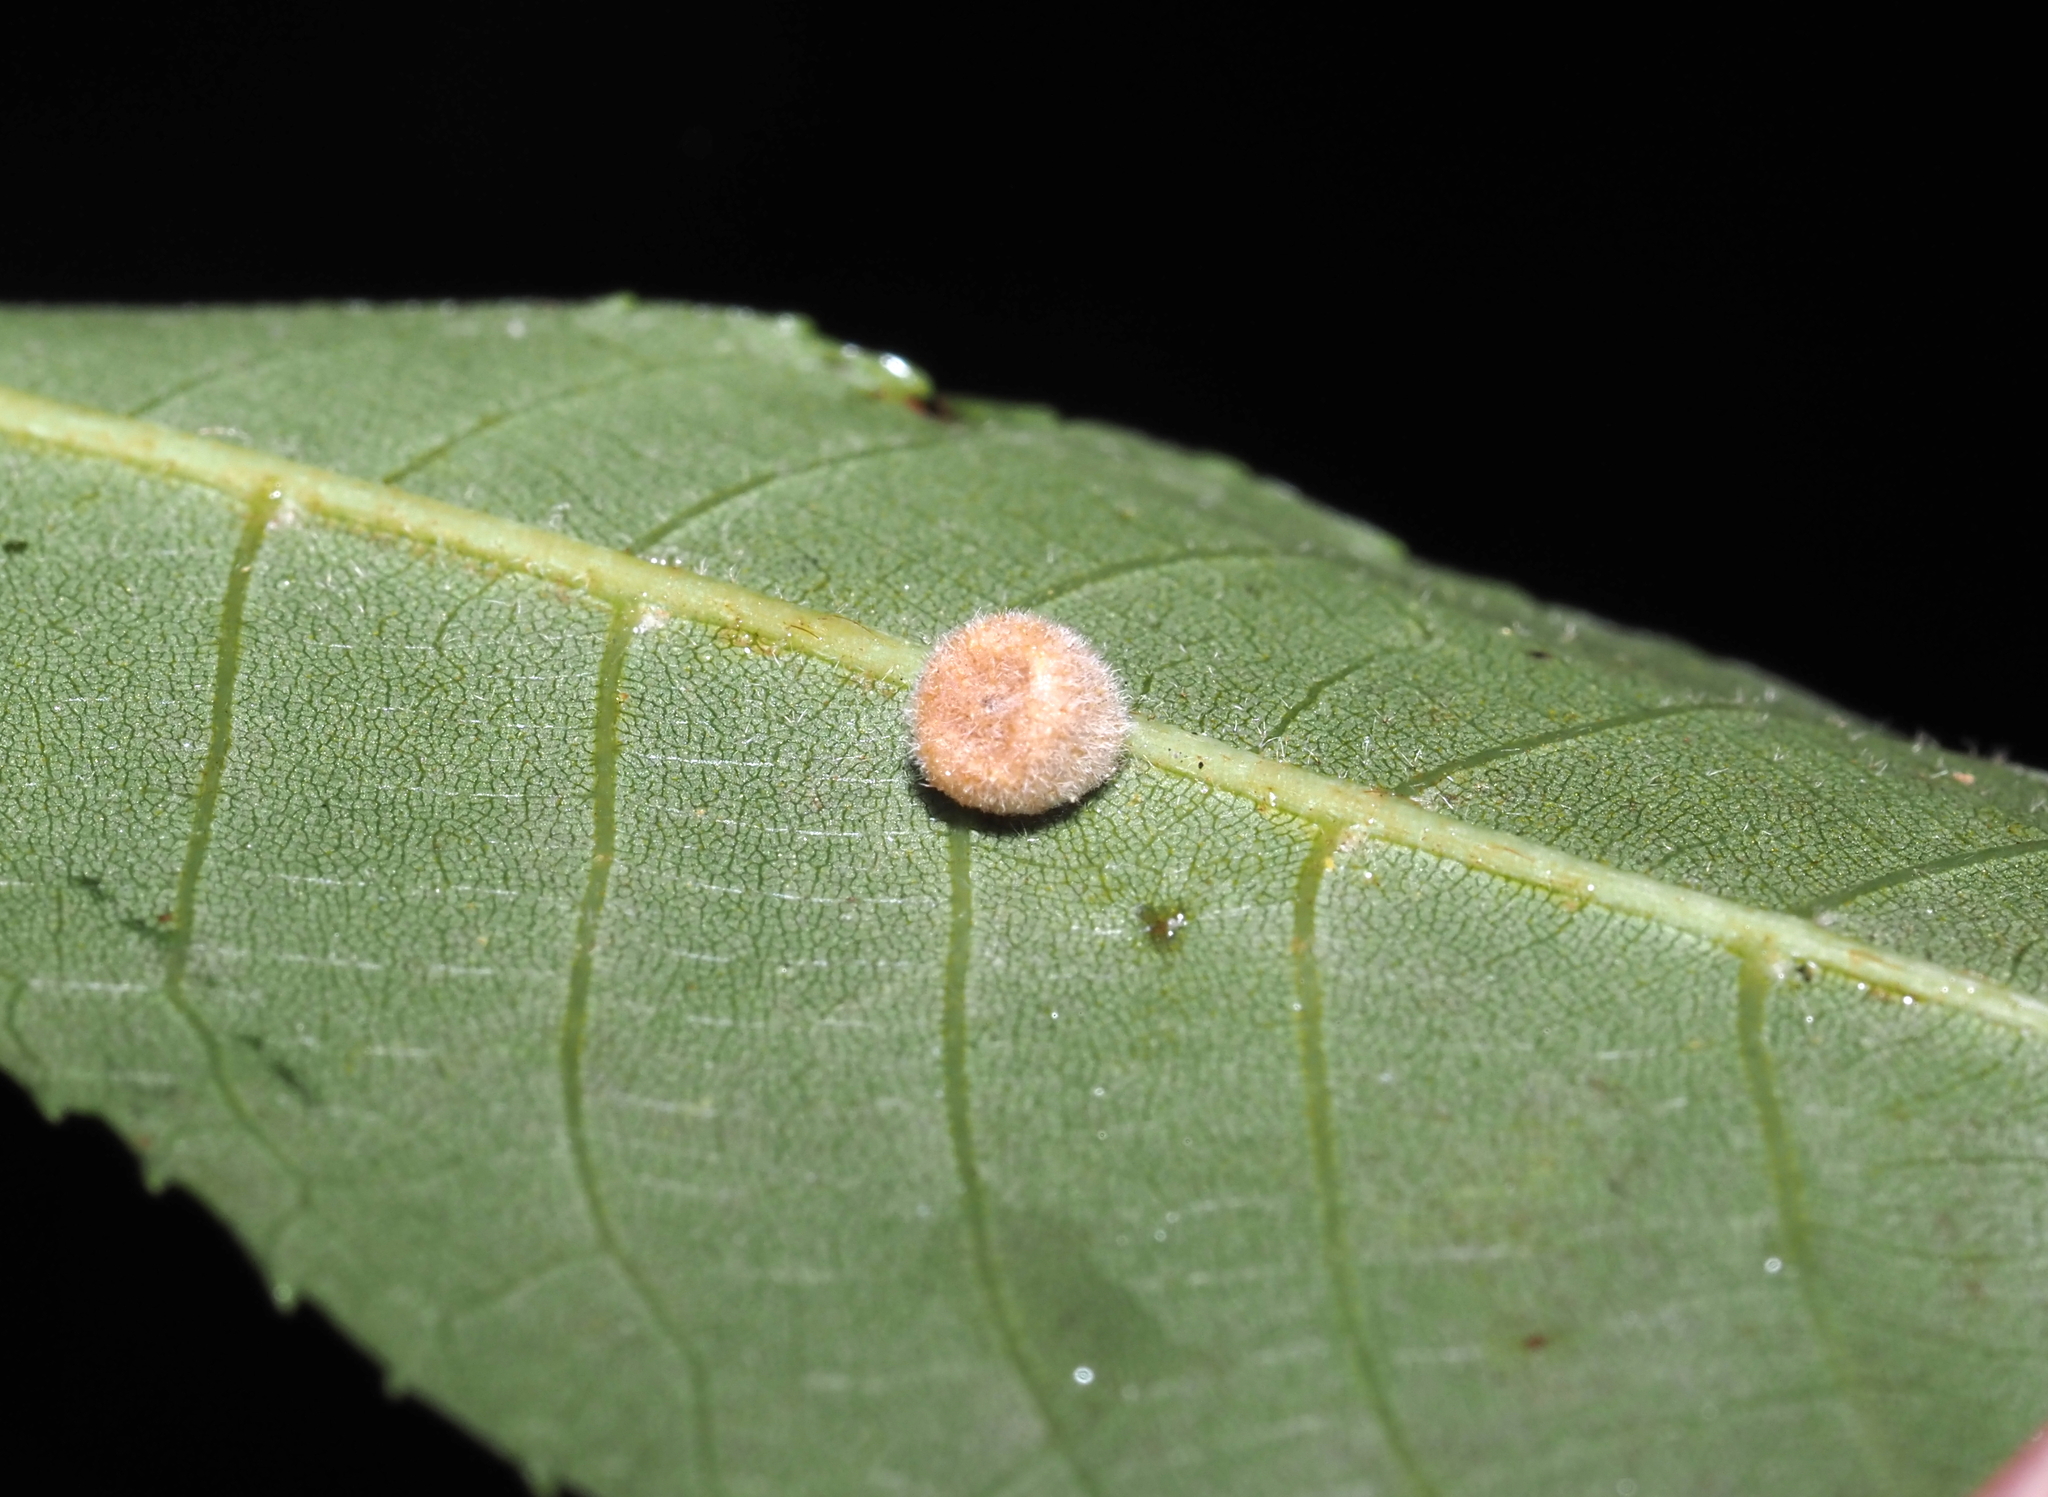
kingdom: Animalia
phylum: Arthropoda
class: Insecta
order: Diptera
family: Cecidomyiidae
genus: Caryomyia
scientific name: Caryomyia persicoides
